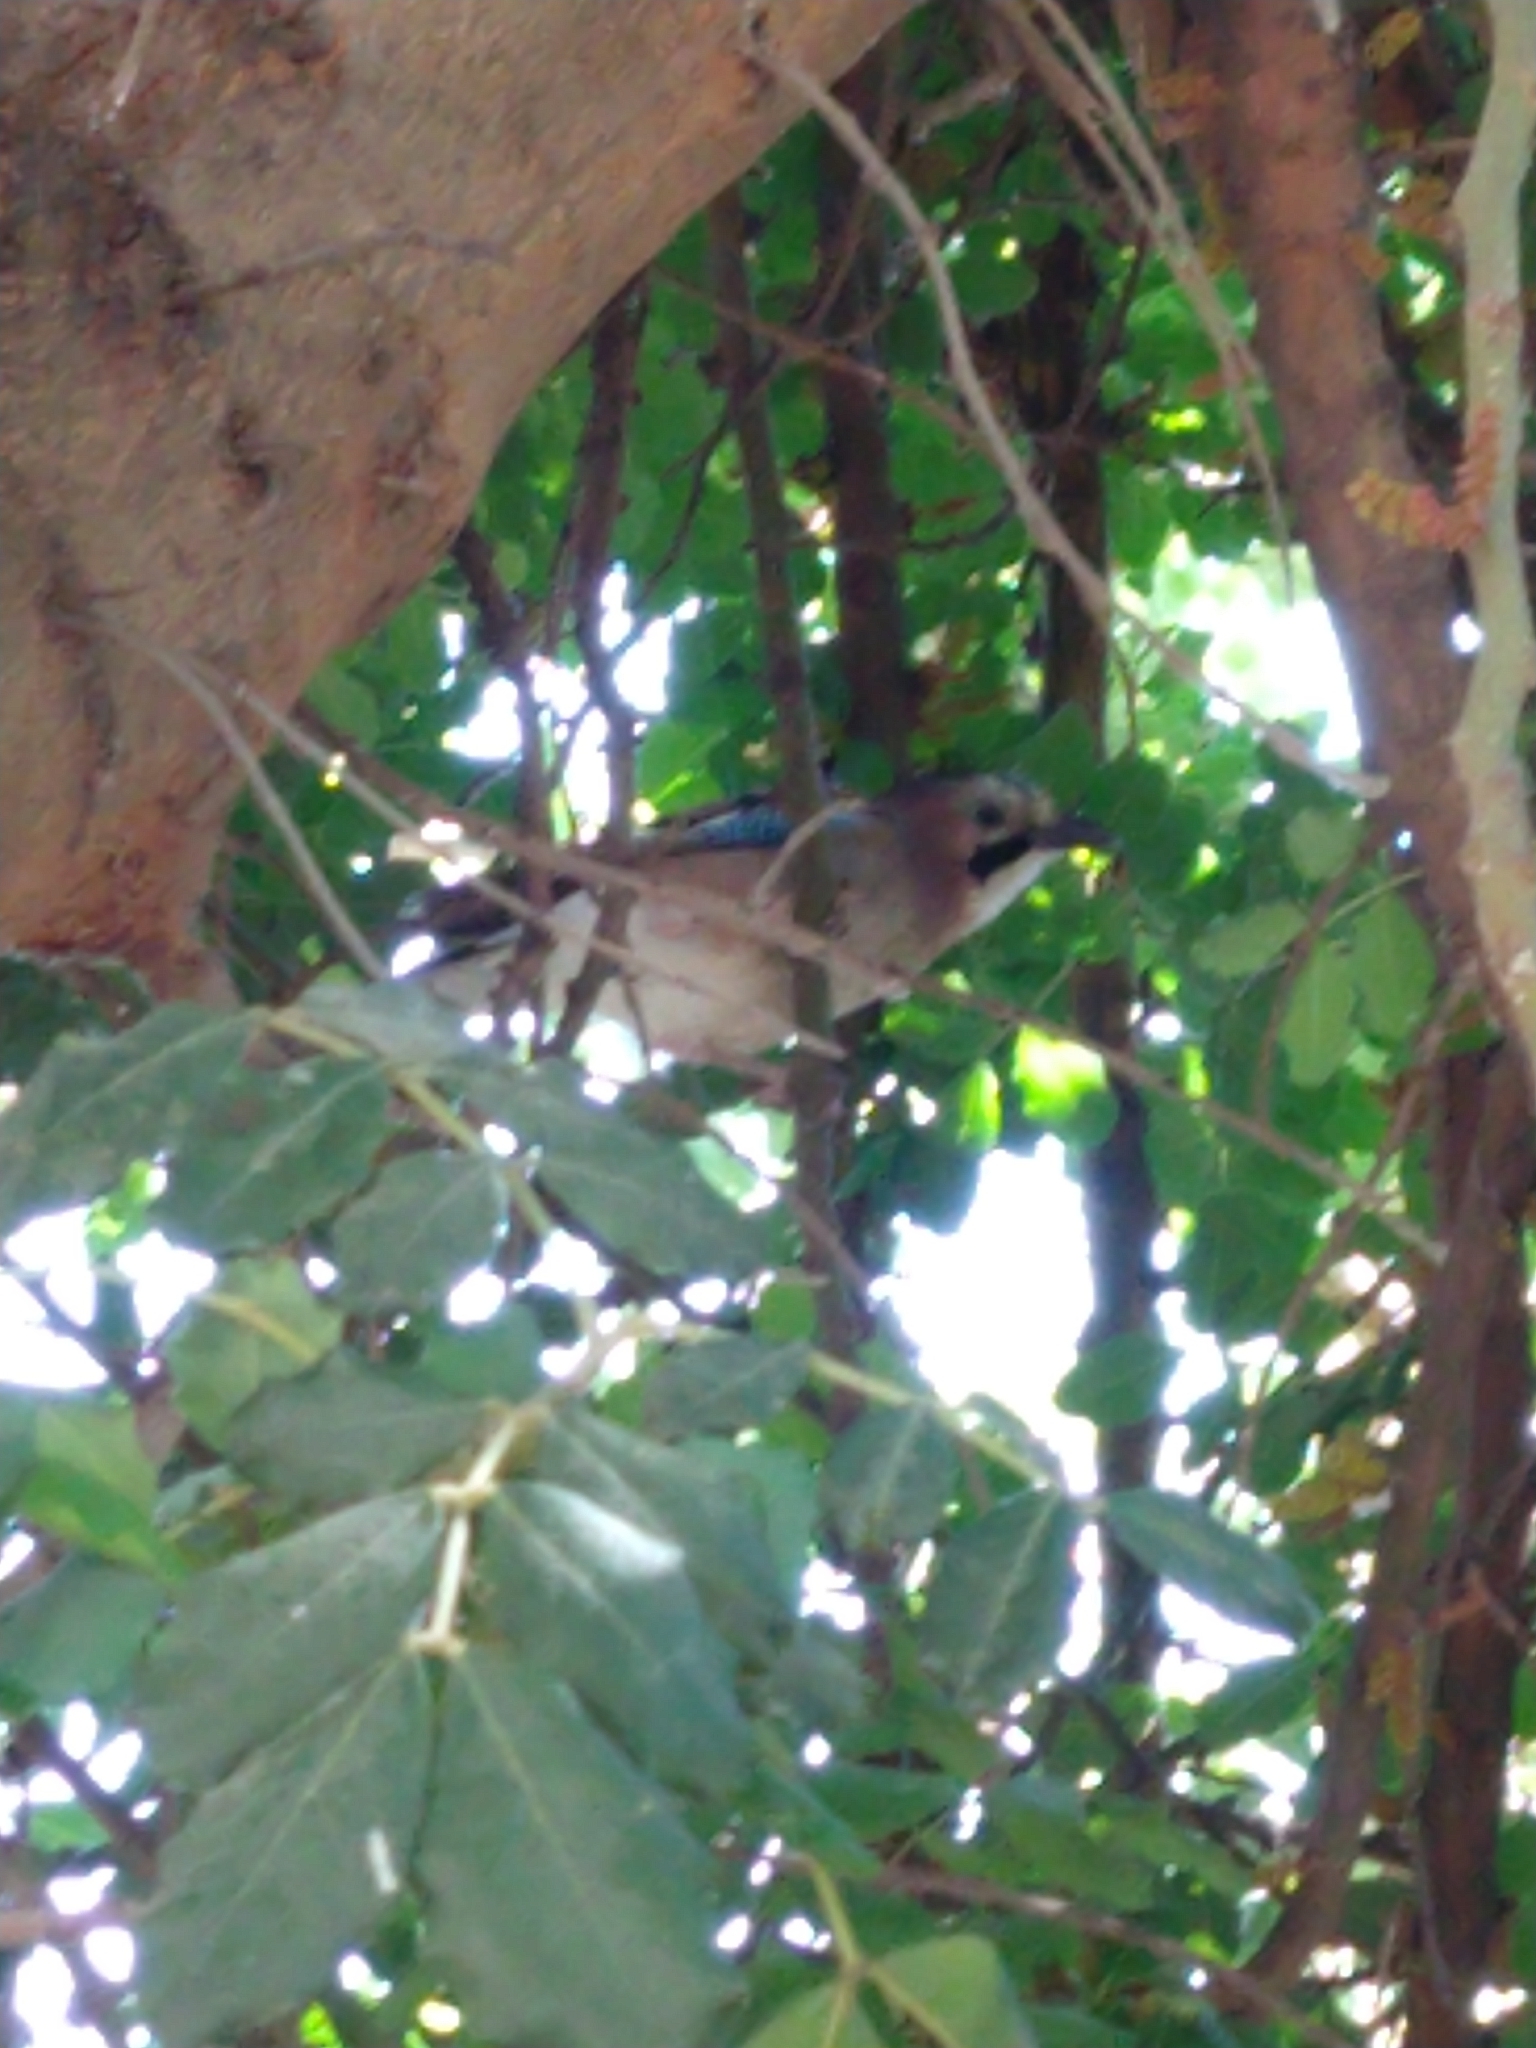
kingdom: Animalia
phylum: Chordata
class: Aves
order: Passeriformes
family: Corvidae
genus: Garrulus
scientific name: Garrulus glandarius
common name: Eurasian jay
